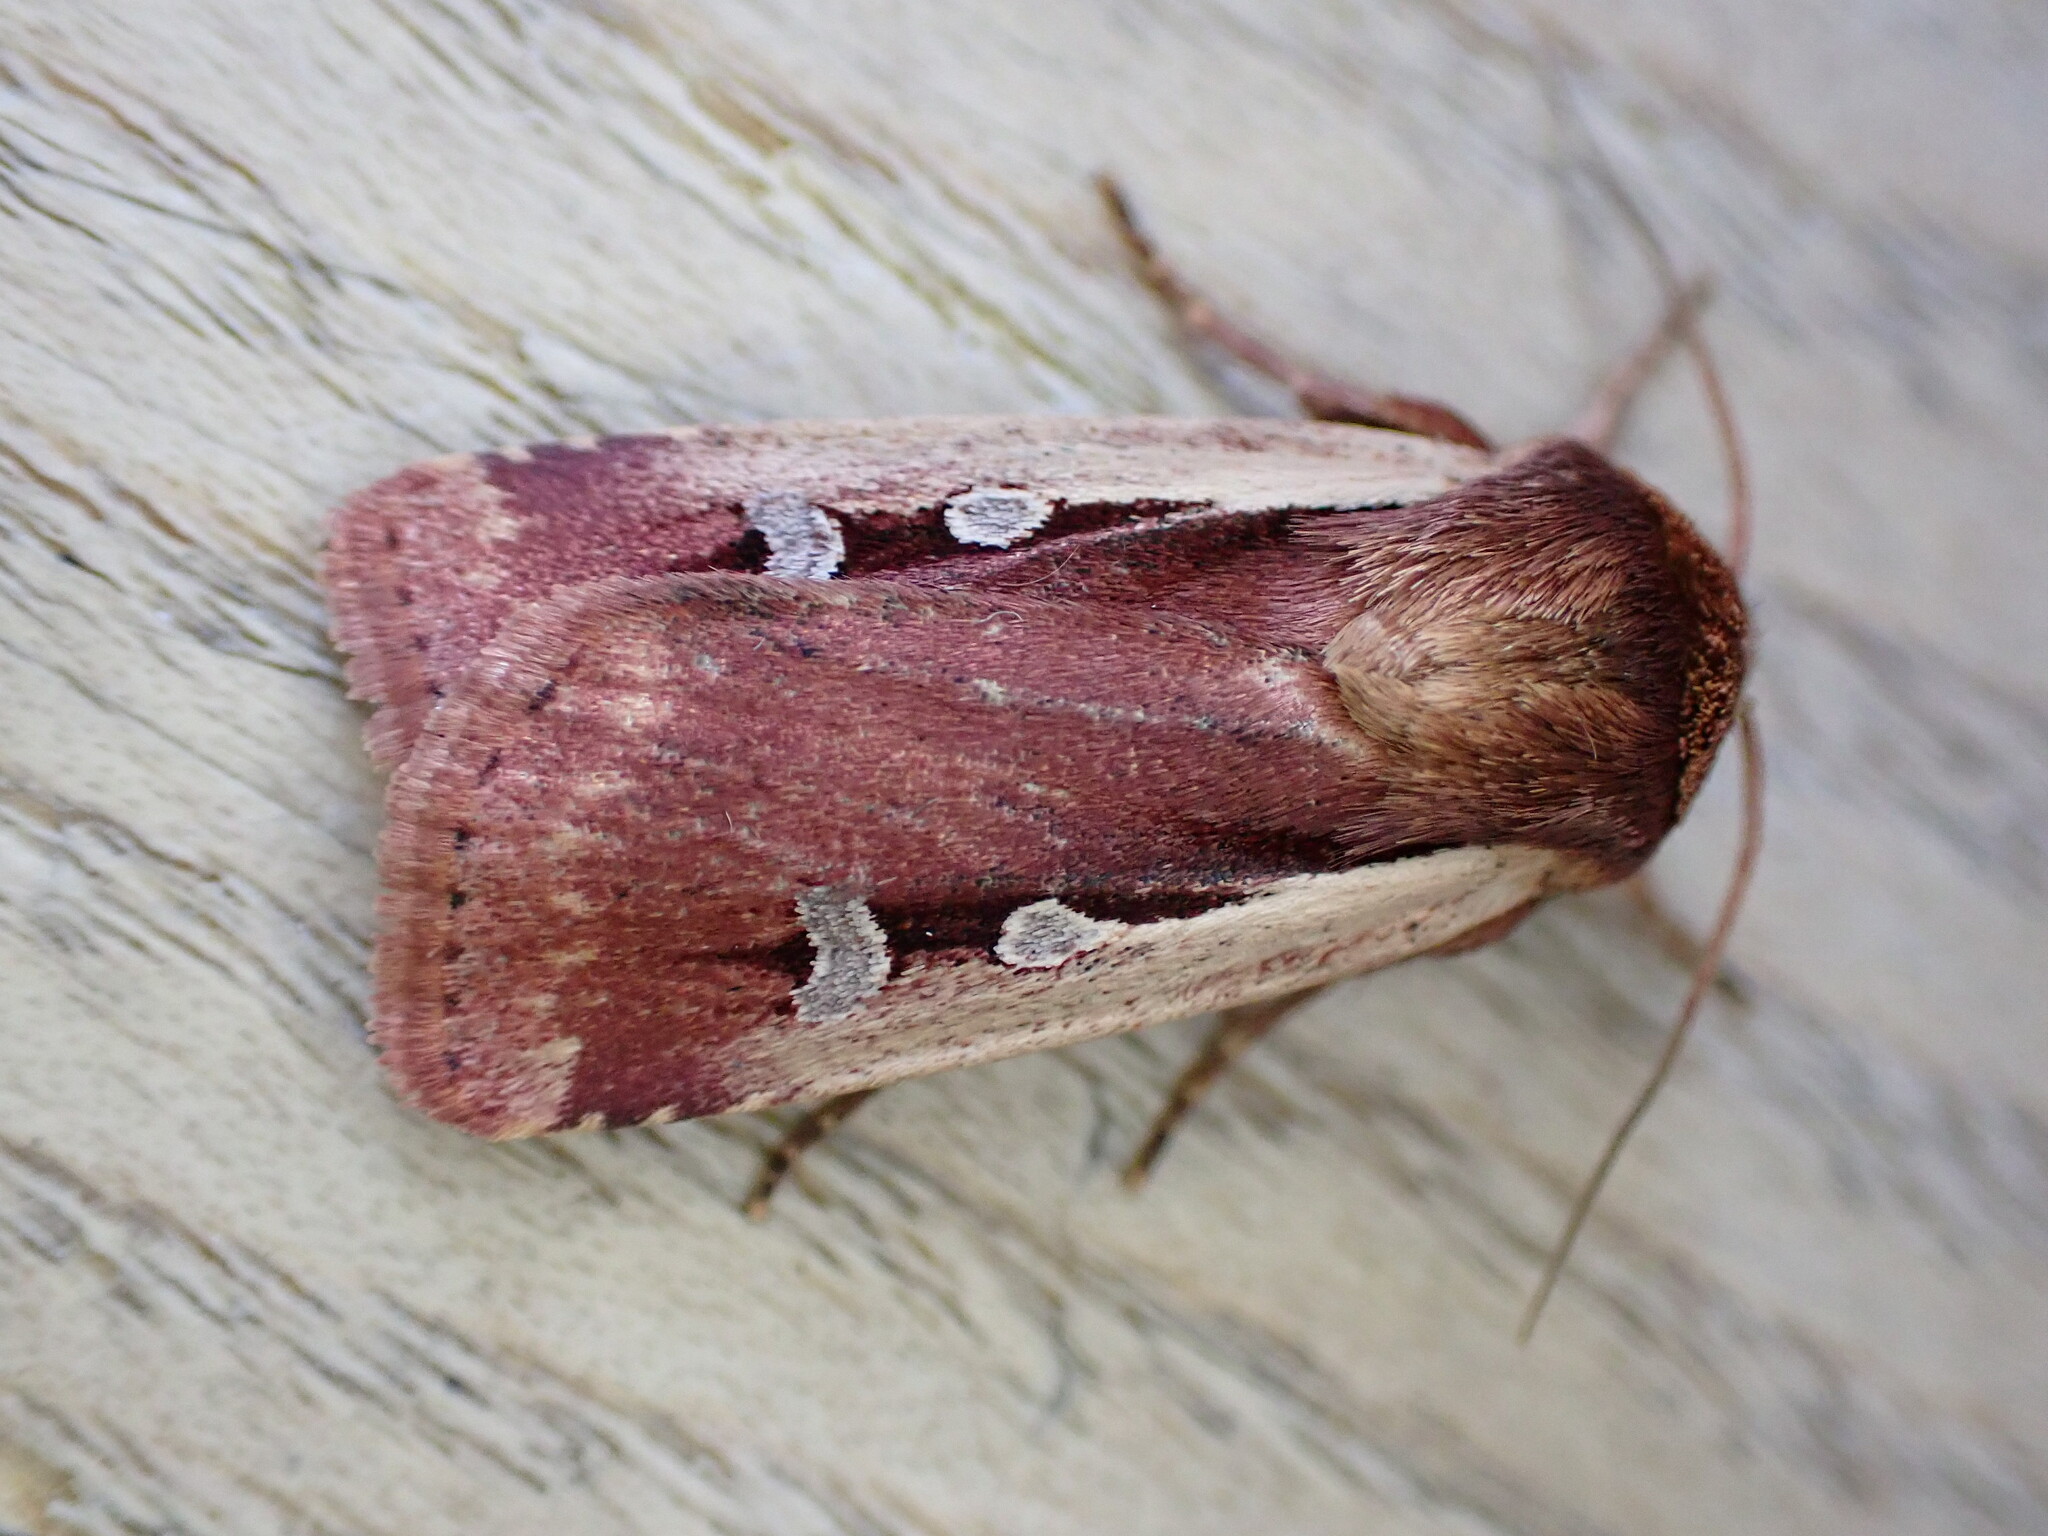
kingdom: Animalia
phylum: Arthropoda
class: Insecta
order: Lepidoptera
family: Noctuidae
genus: Ochropleura
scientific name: Ochropleura plecta
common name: Flame shoulder
